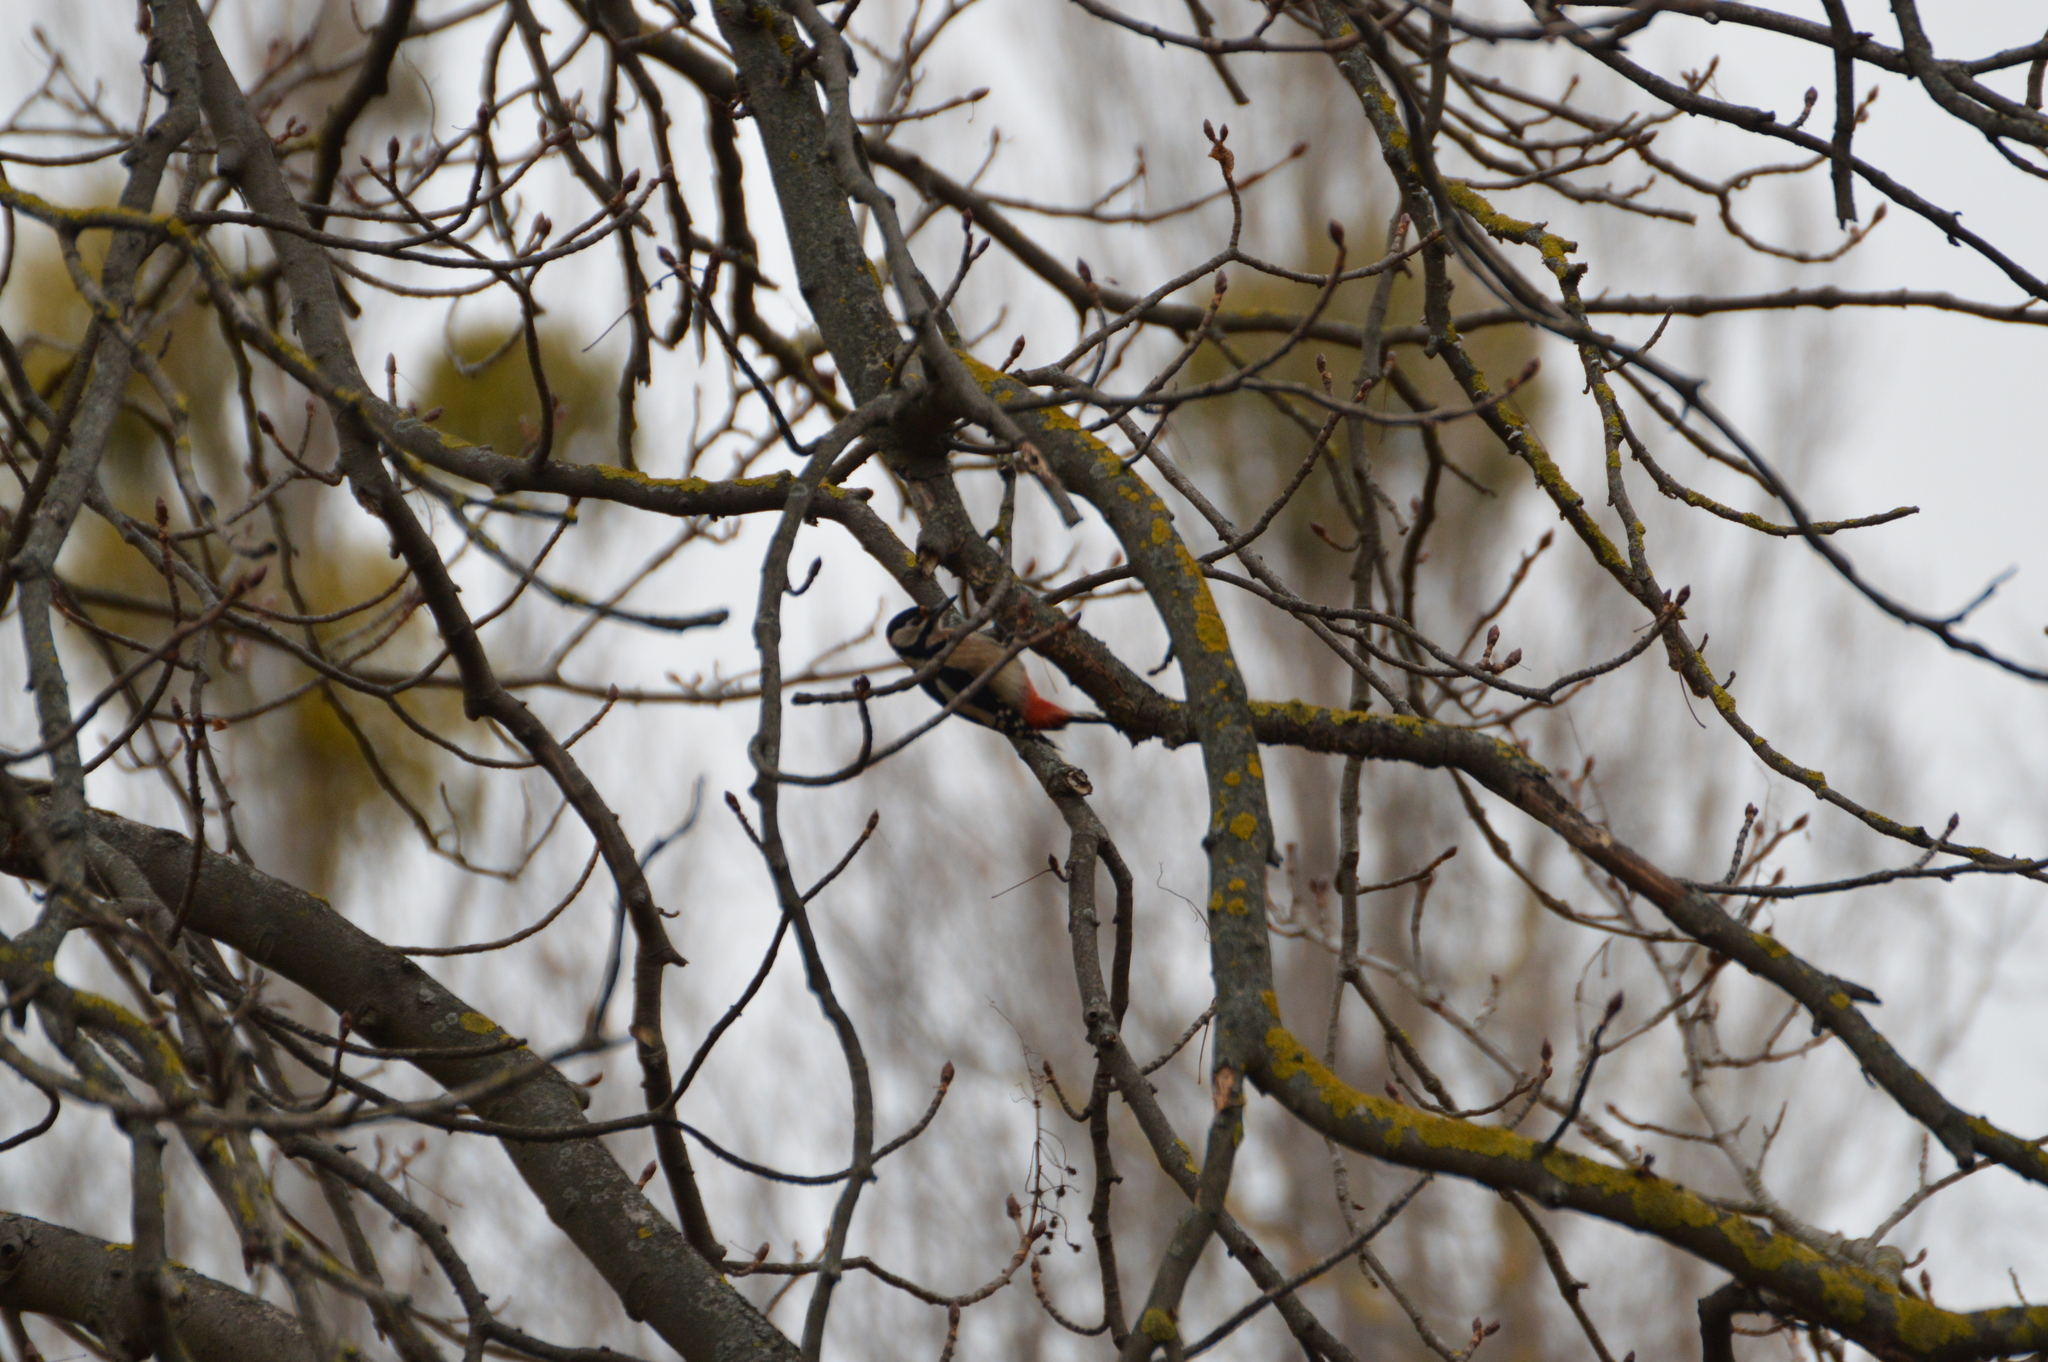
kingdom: Animalia
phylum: Chordata
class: Aves
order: Piciformes
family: Picidae
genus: Dendrocopos
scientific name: Dendrocopos major
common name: Great spotted woodpecker
